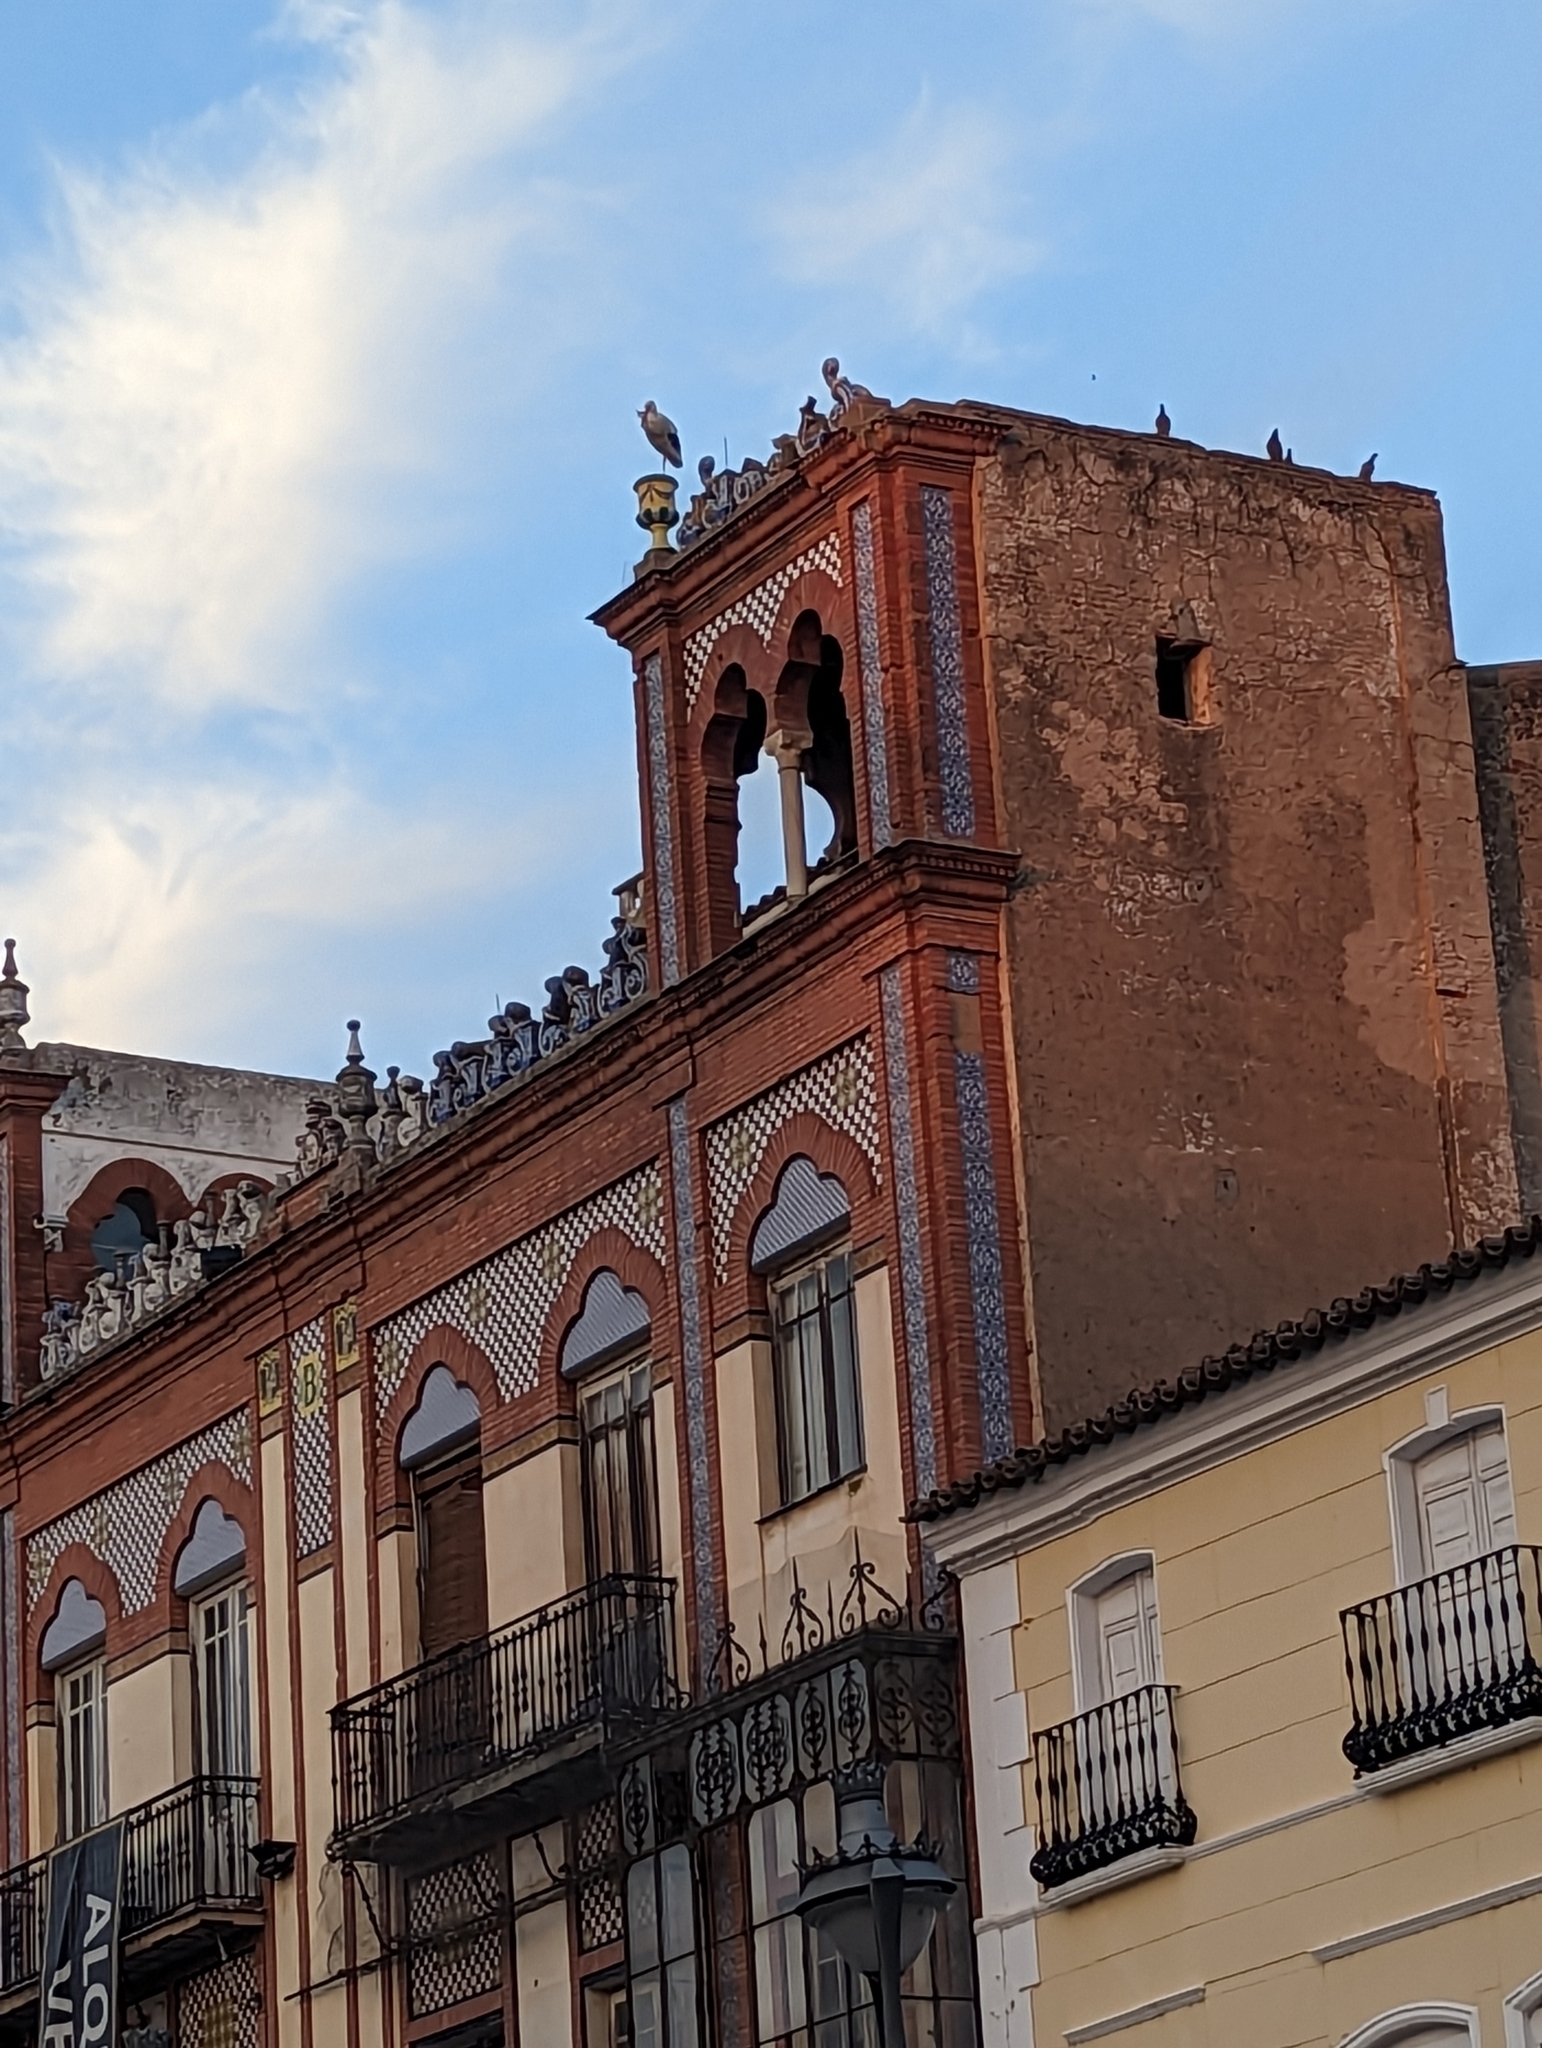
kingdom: Animalia
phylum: Chordata
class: Aves
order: Ciconiiformes
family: Ciconiidae
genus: Ciconia
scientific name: Ciconia ciconia
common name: White stork
